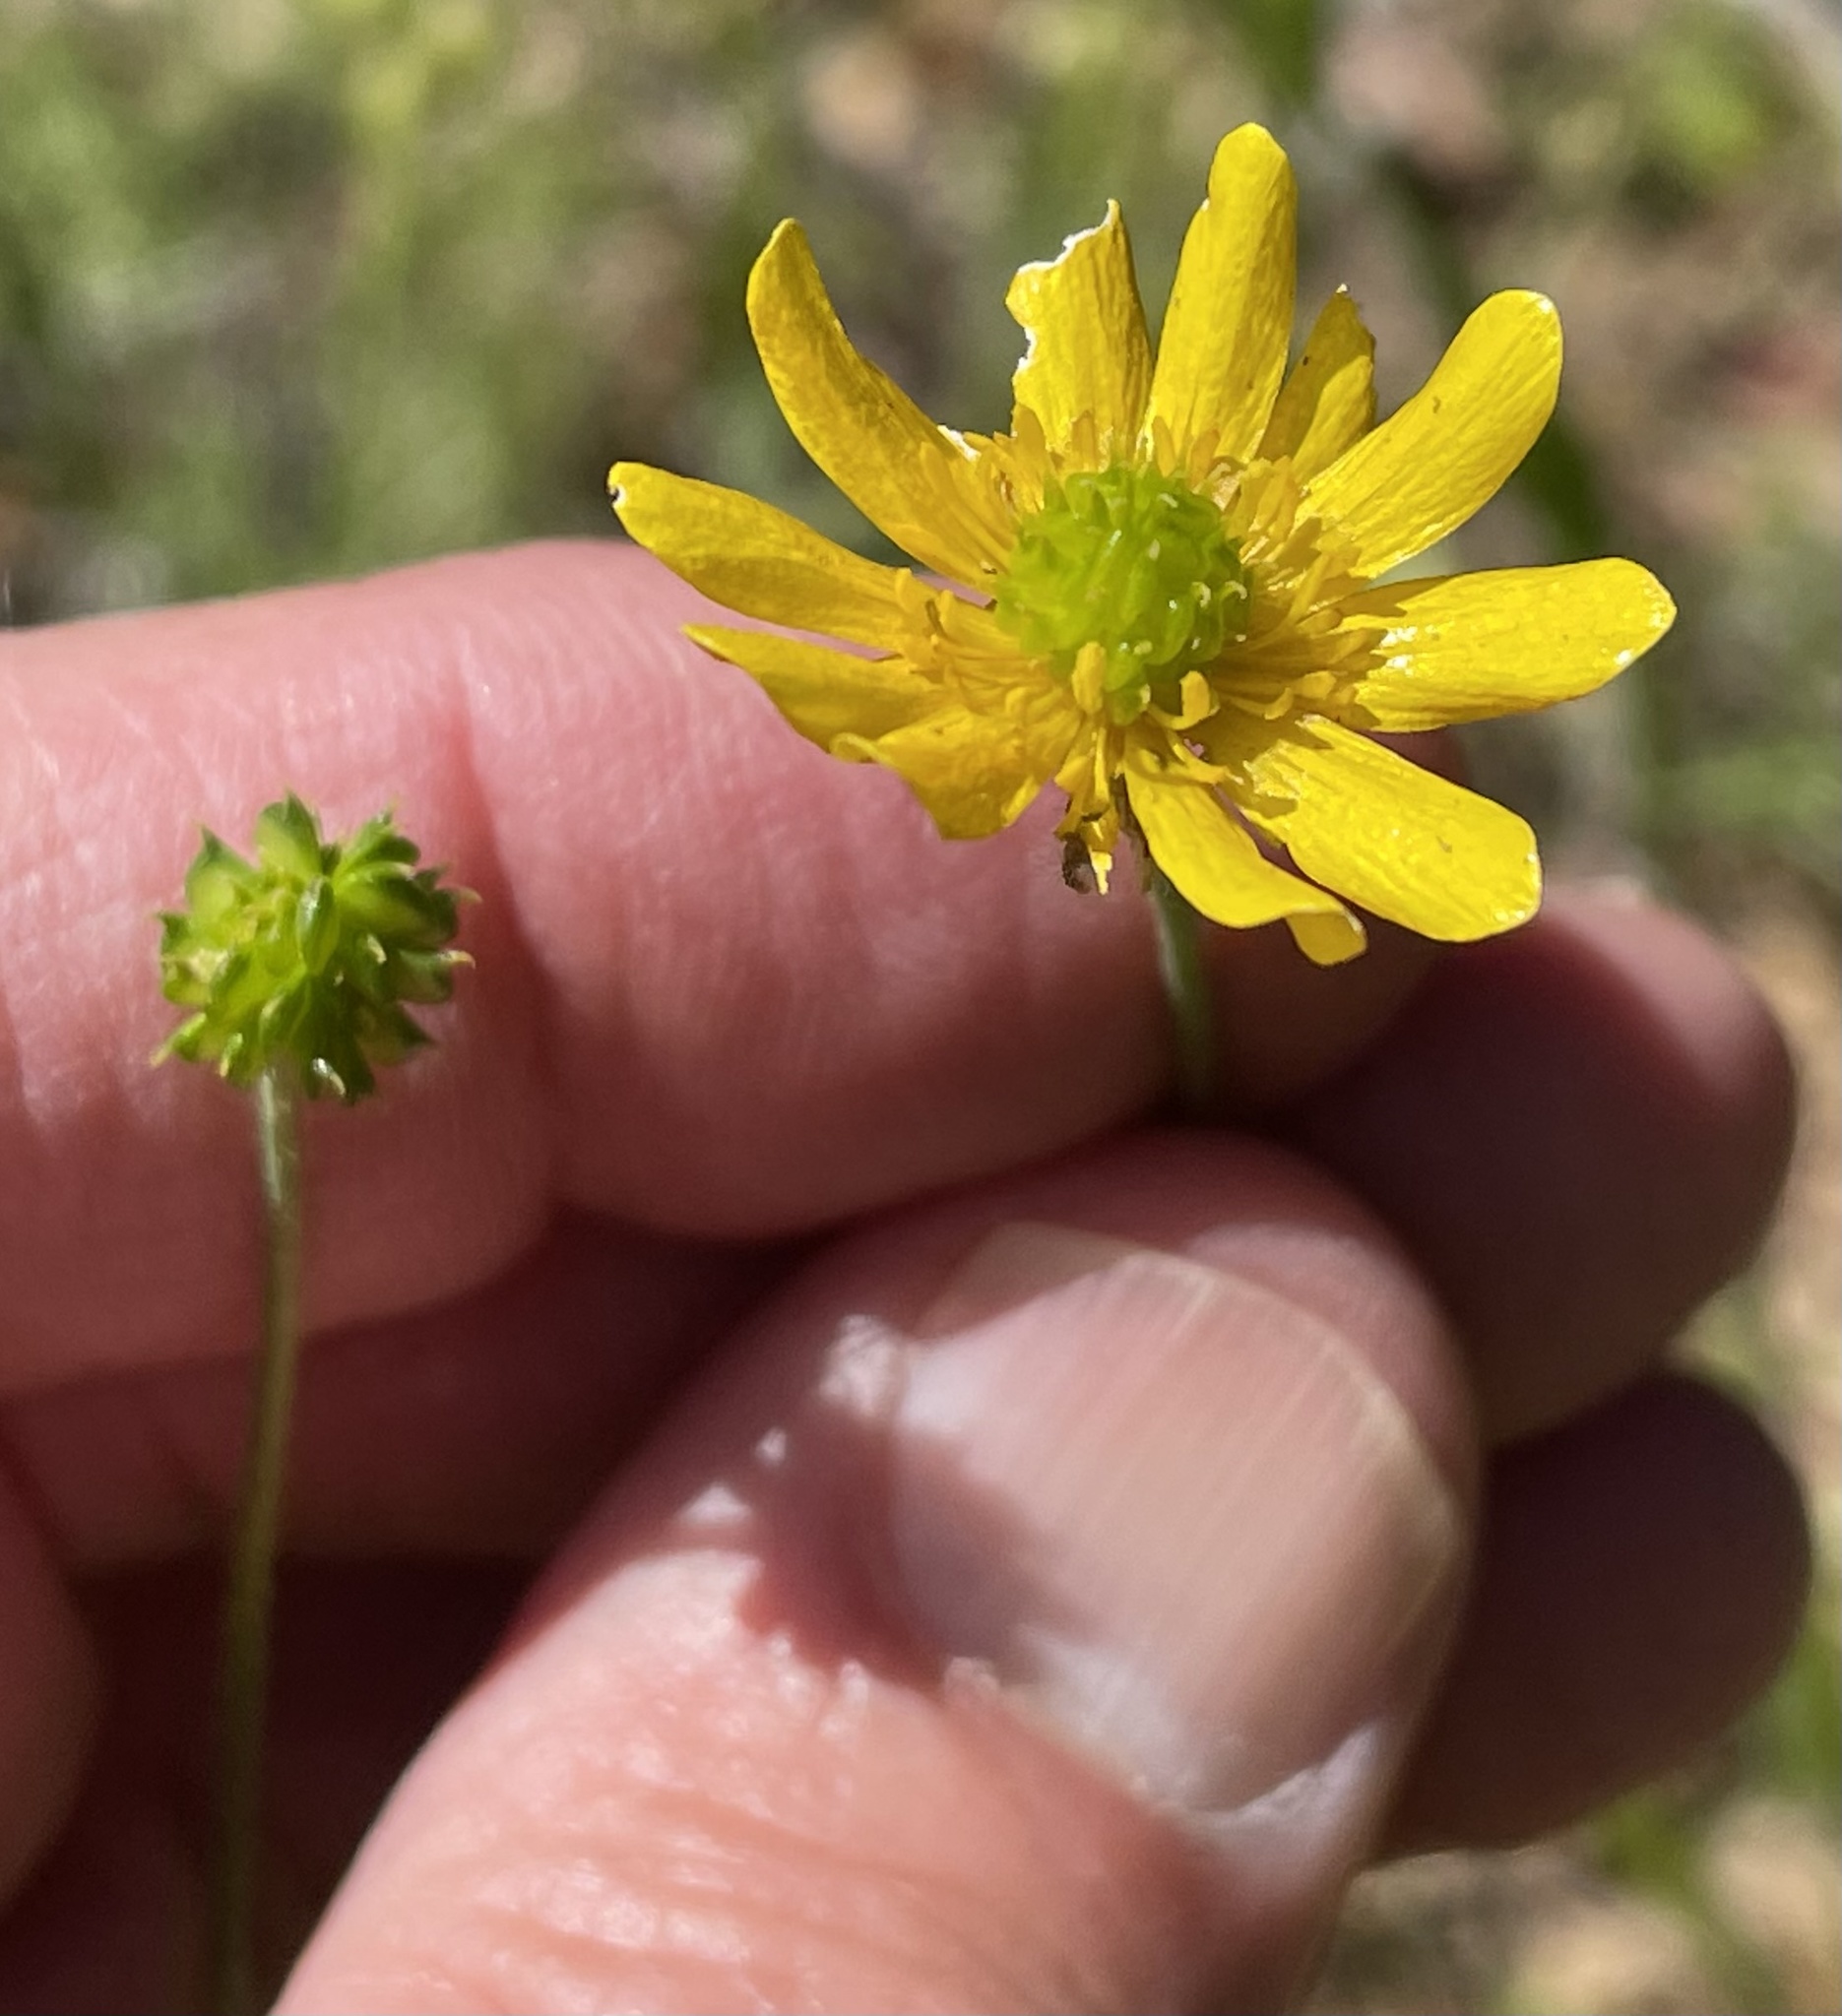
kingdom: Plantae
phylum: Tracheophyta
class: Magnoliopsida
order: Ranunculales
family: Ranunculaceae
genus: Ranunculus
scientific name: Ranunculus californicus
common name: California buttercup
